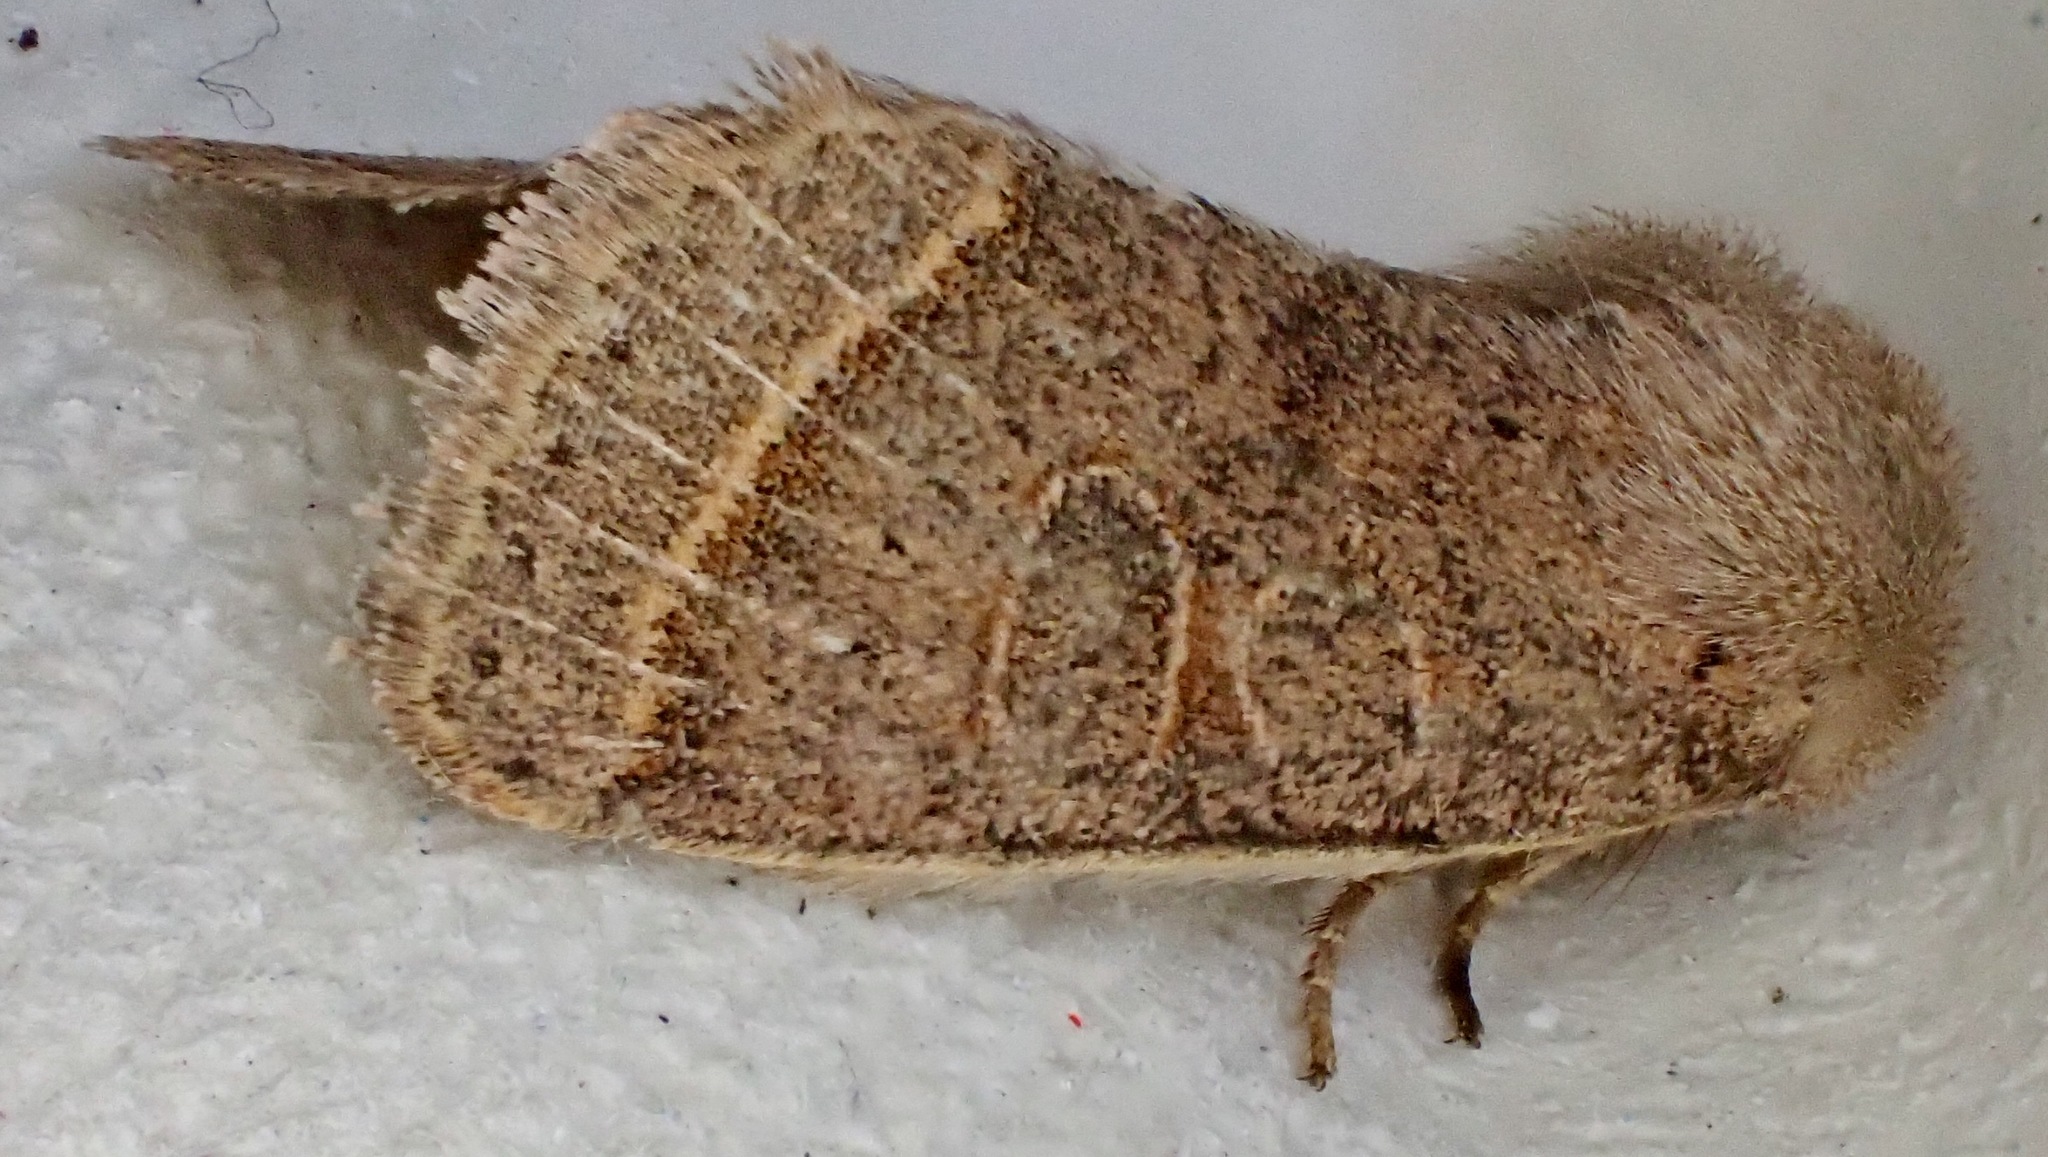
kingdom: Animalia
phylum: Arthropoda
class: Insecta
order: Lepidoptera
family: Noctuidae
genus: Orthosia
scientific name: Orthosia cerasi
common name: Common quaker
